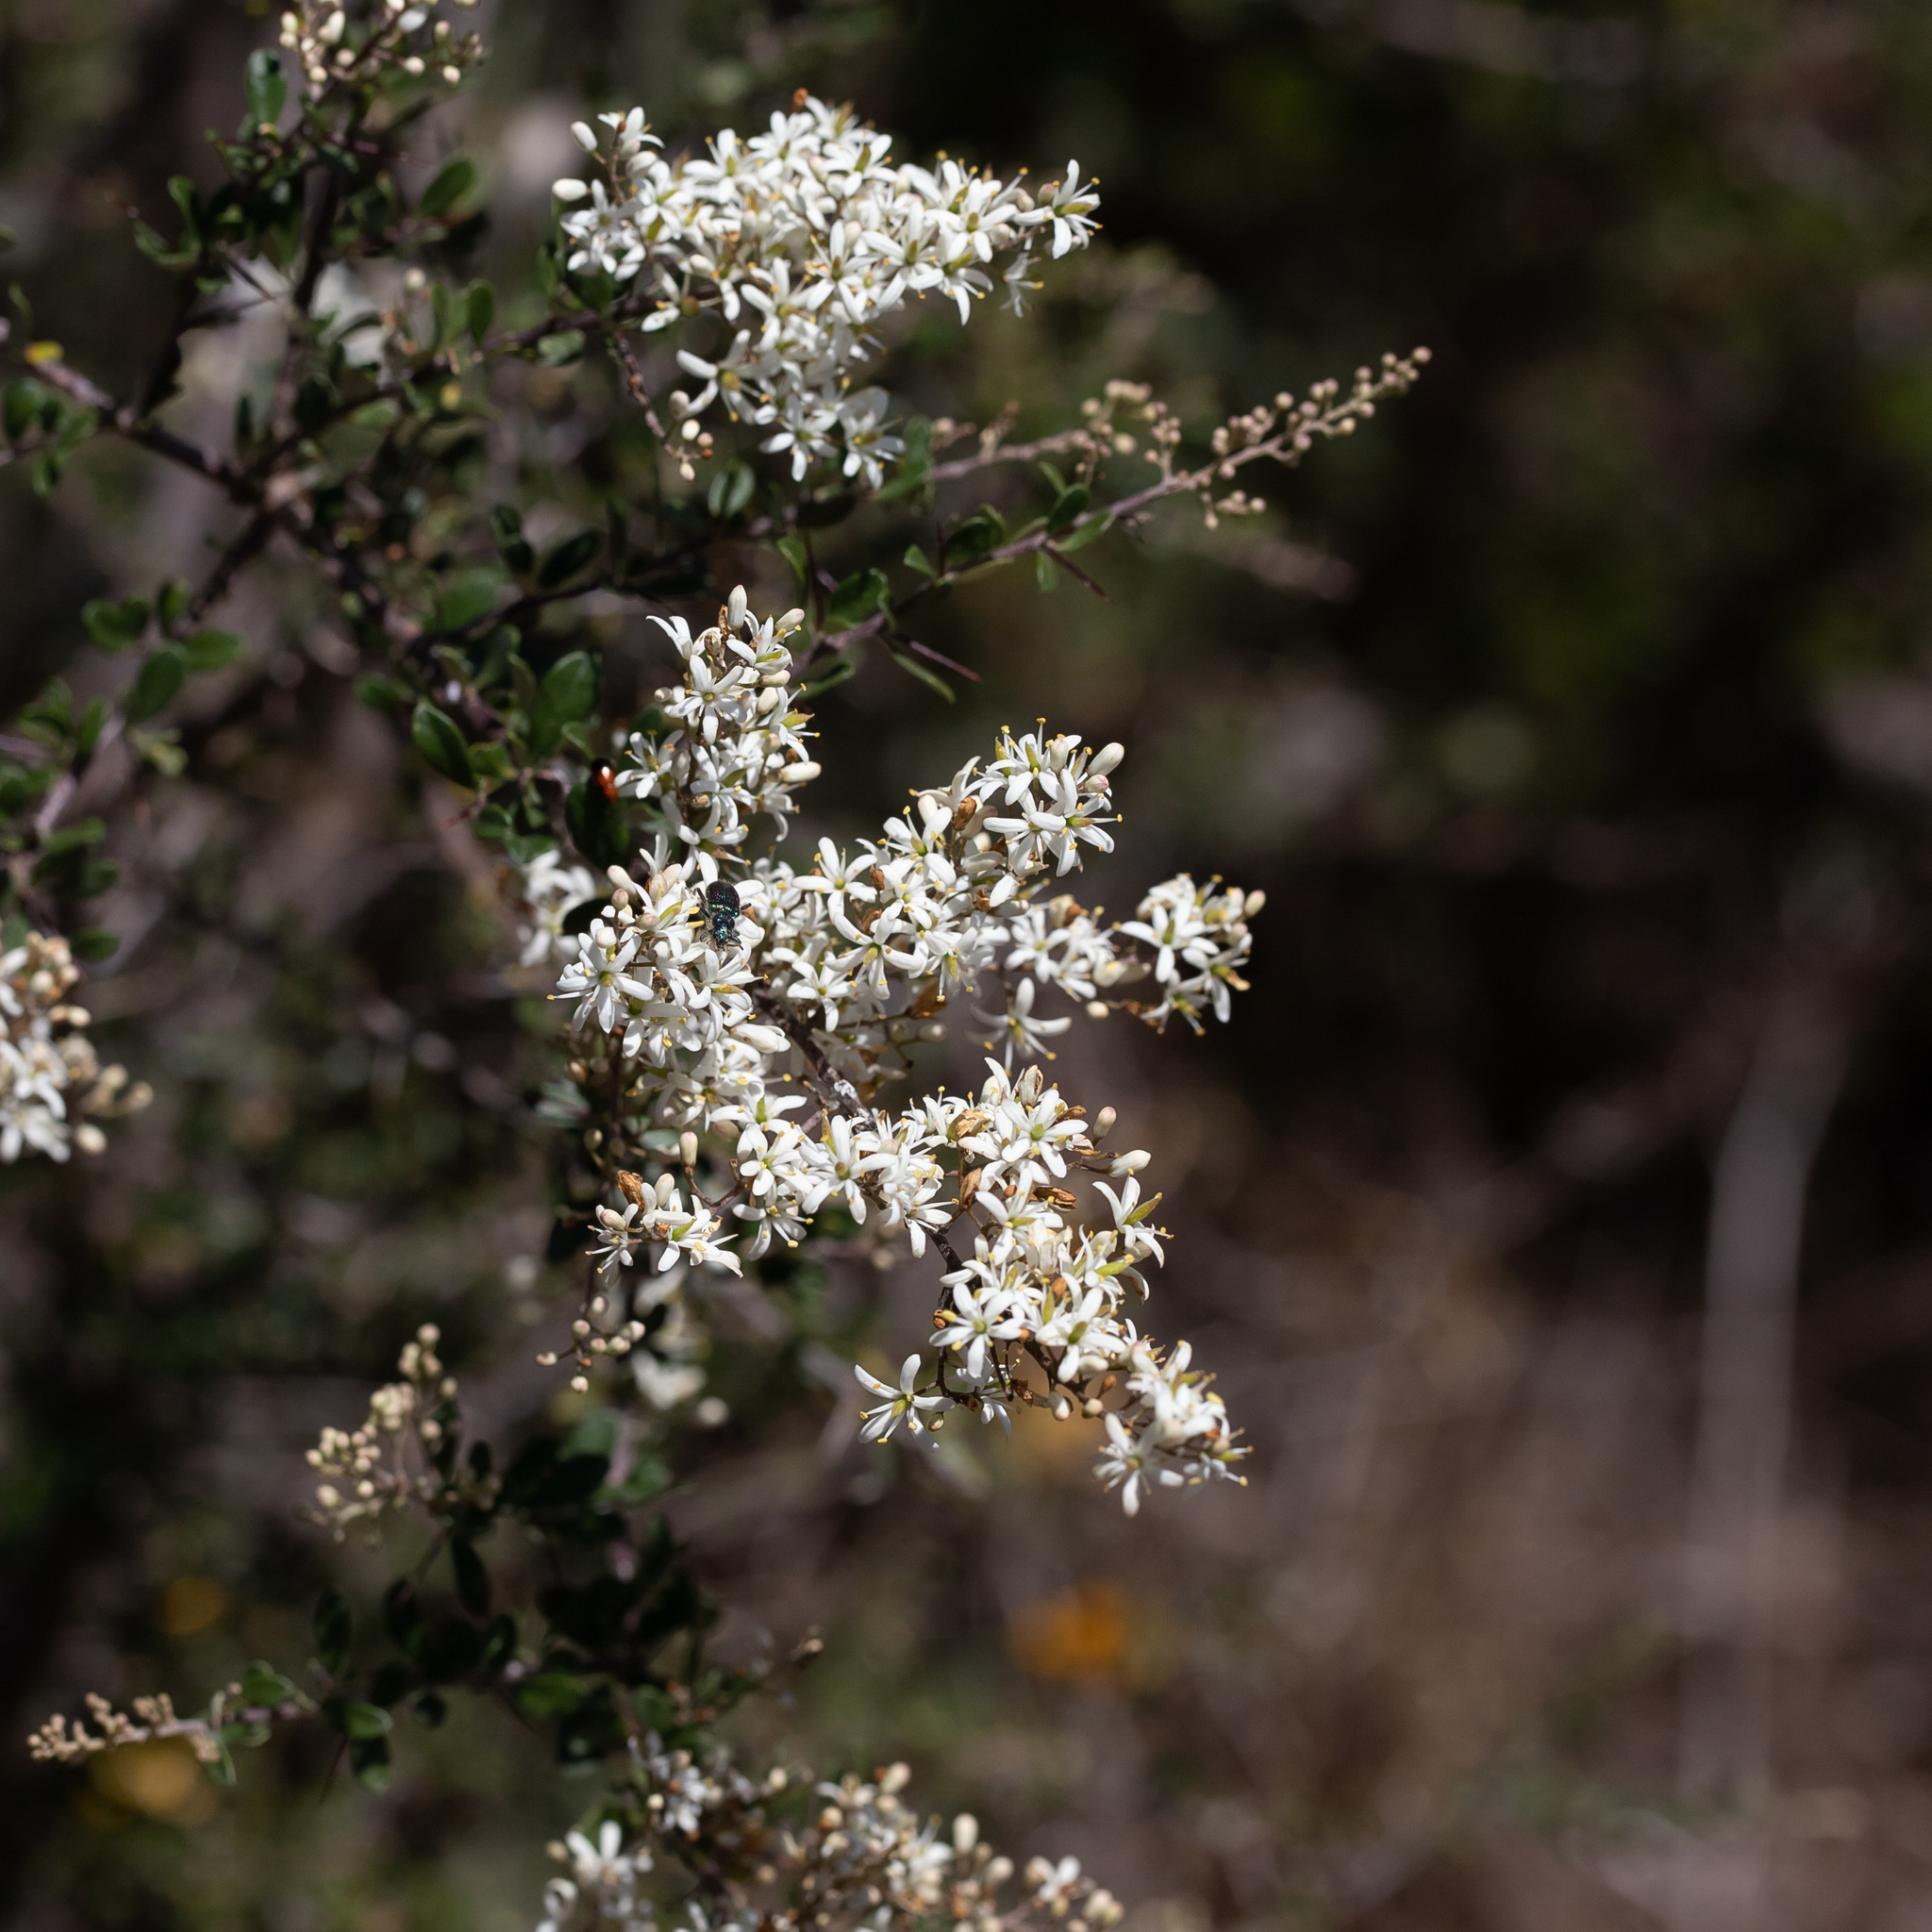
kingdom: Plantae
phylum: Tracheophyta
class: Magnoliopsida
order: Apiales
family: Pittosporaceae
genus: Bursaria
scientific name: Bursaria spinosa
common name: Australian blackthorn
